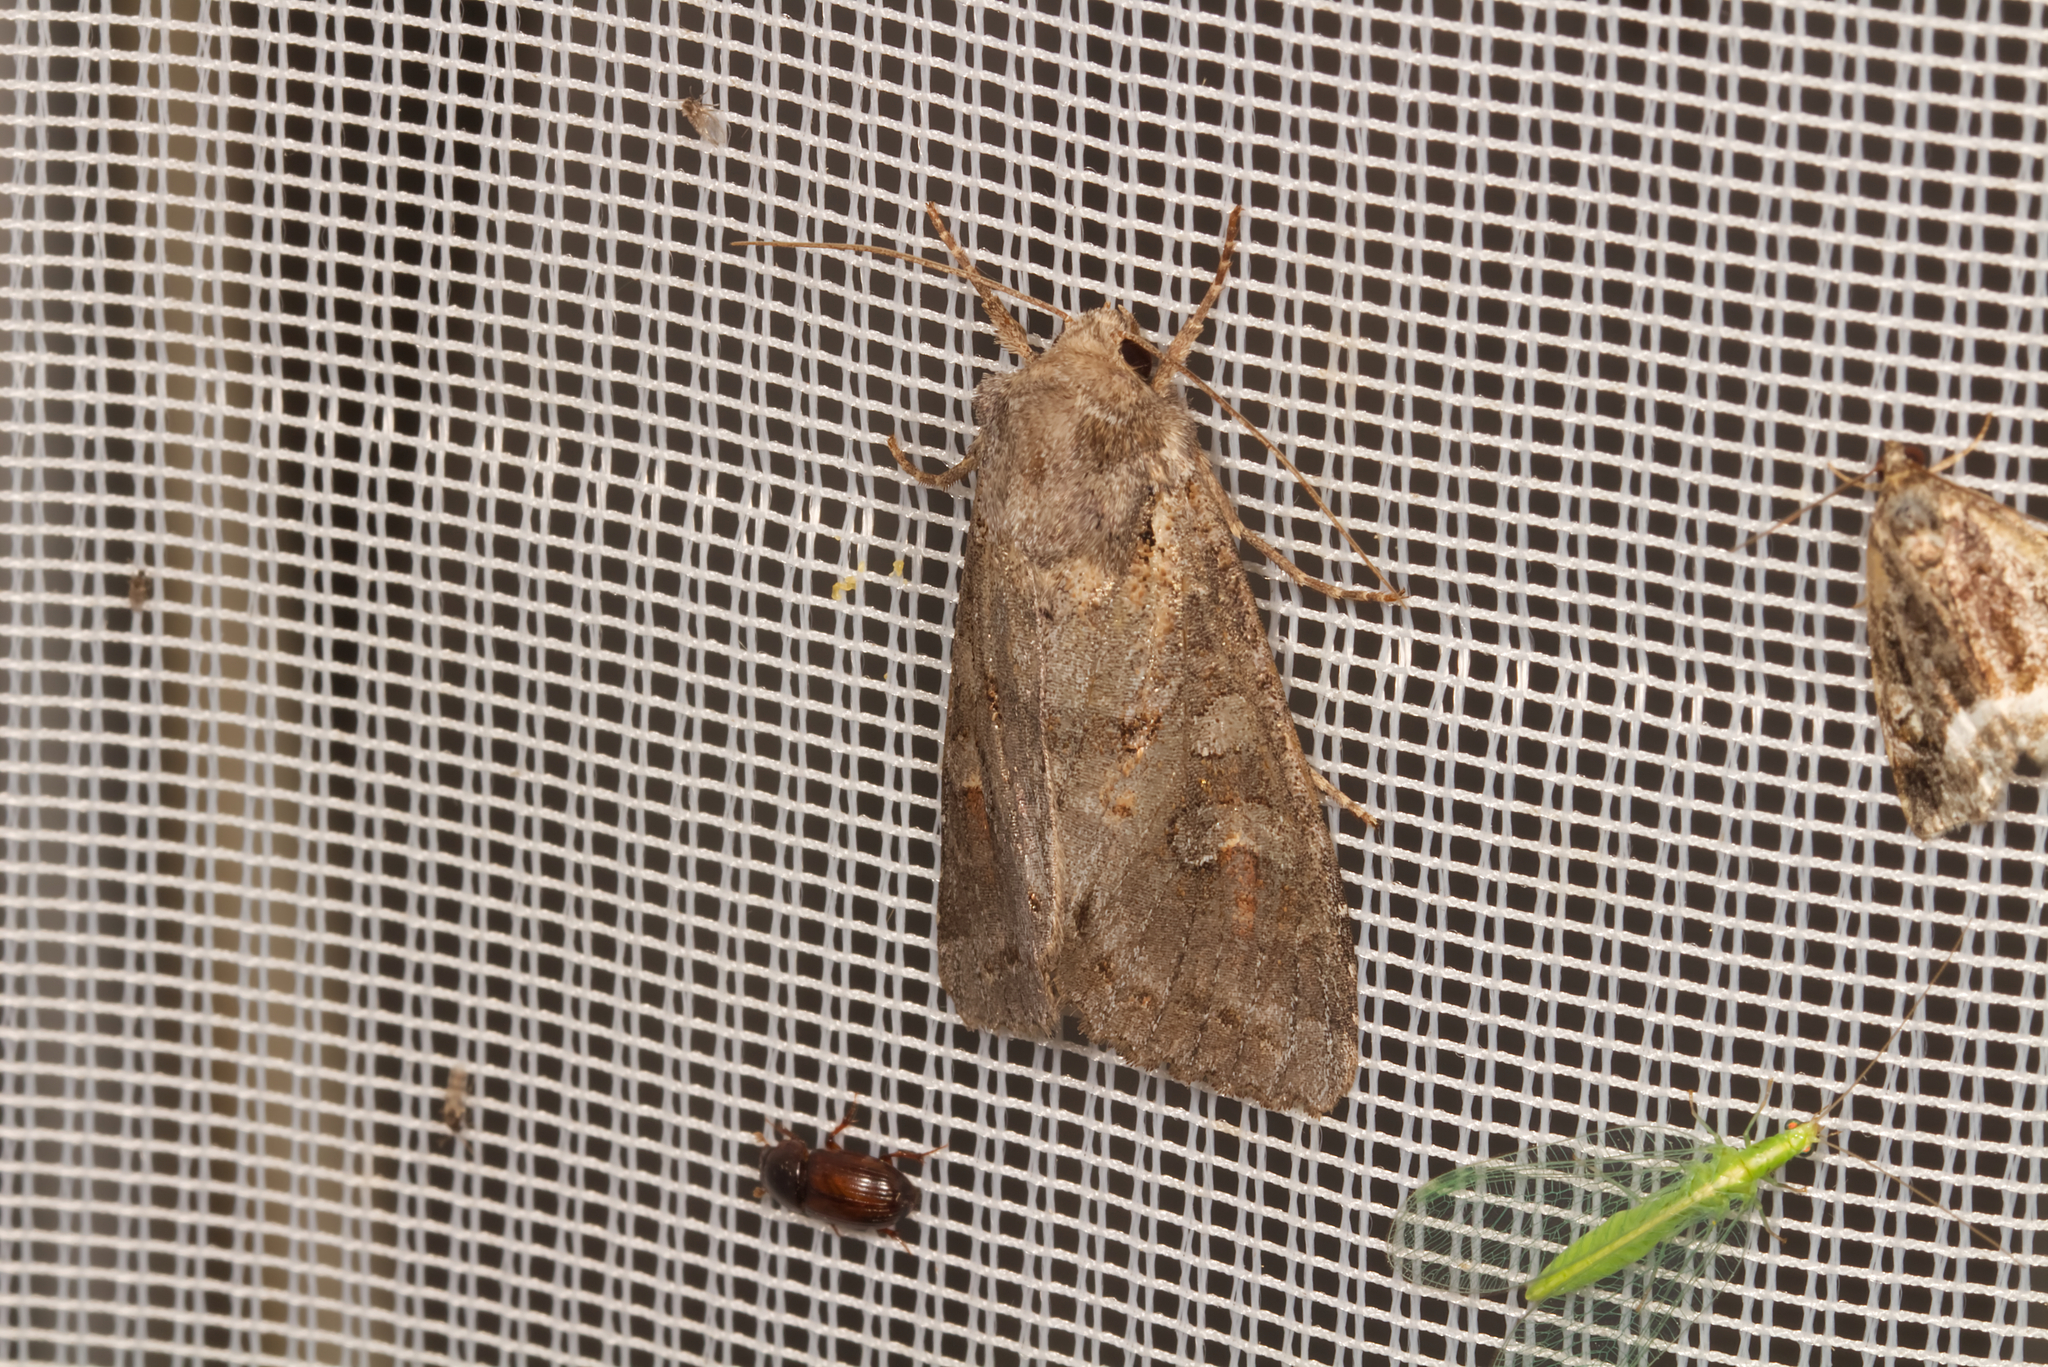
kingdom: Animalia
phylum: Arthropoda
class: Insecta
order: Lepidoptera
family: Noctuidae
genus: Polia
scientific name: Polia bombycina
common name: Pale shining brown
